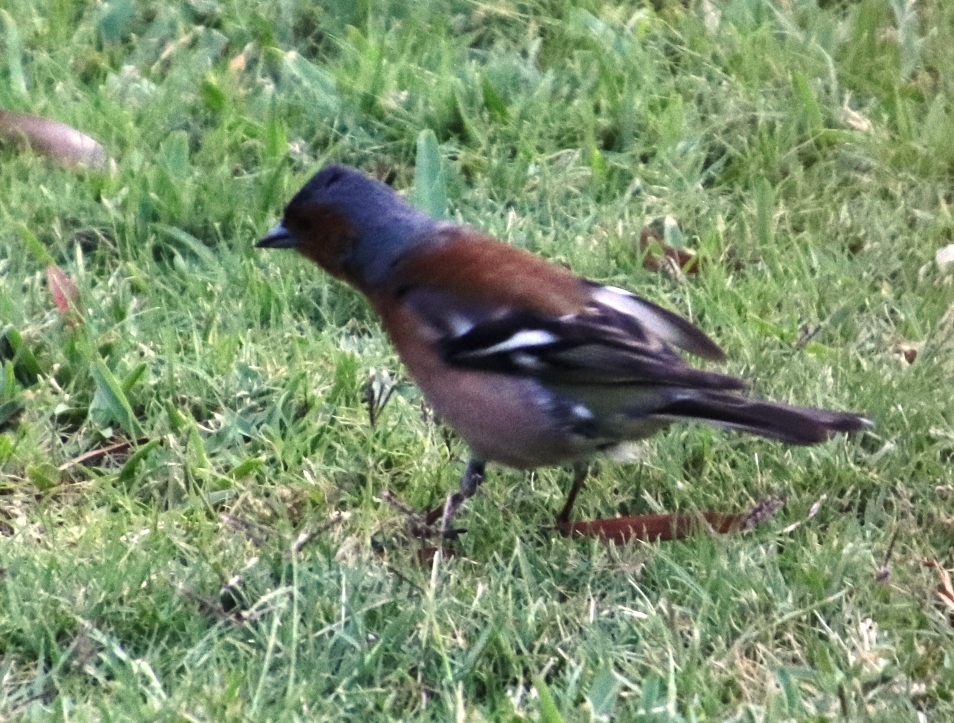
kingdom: Animalia
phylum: Chordata
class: Aves
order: Passeriformes
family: Fringillidae
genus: Fringilla
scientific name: Fringilla coelebs
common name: Common chaffinch
